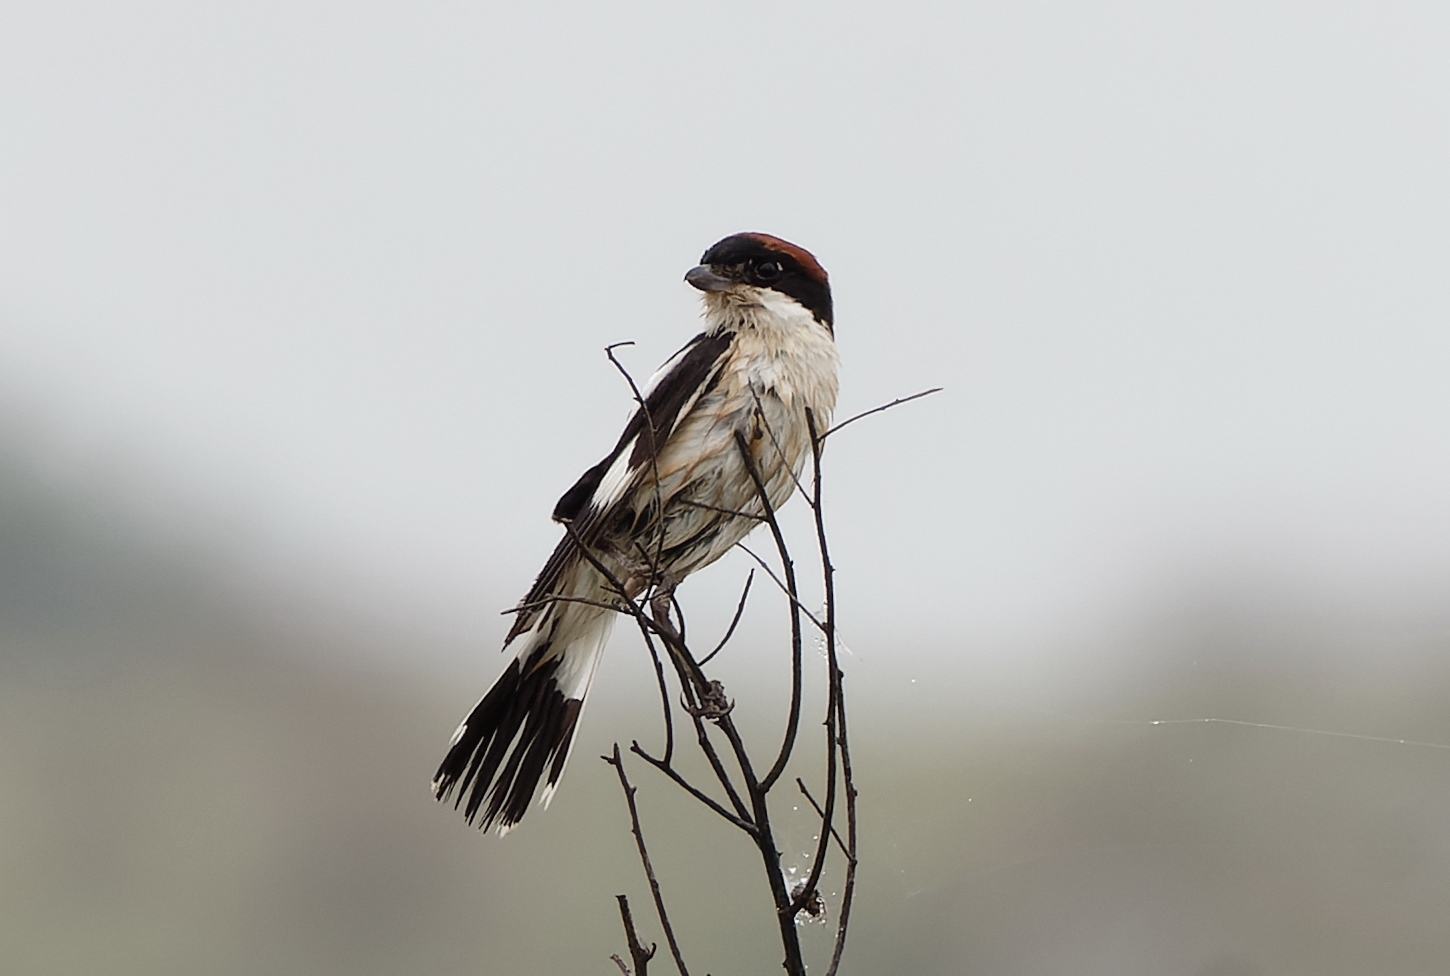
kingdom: Animalia
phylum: Chordata
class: Aves
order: Passeriformes
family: Laniidae
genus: Lanius
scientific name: Lanius senator
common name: Woodchat shrike
